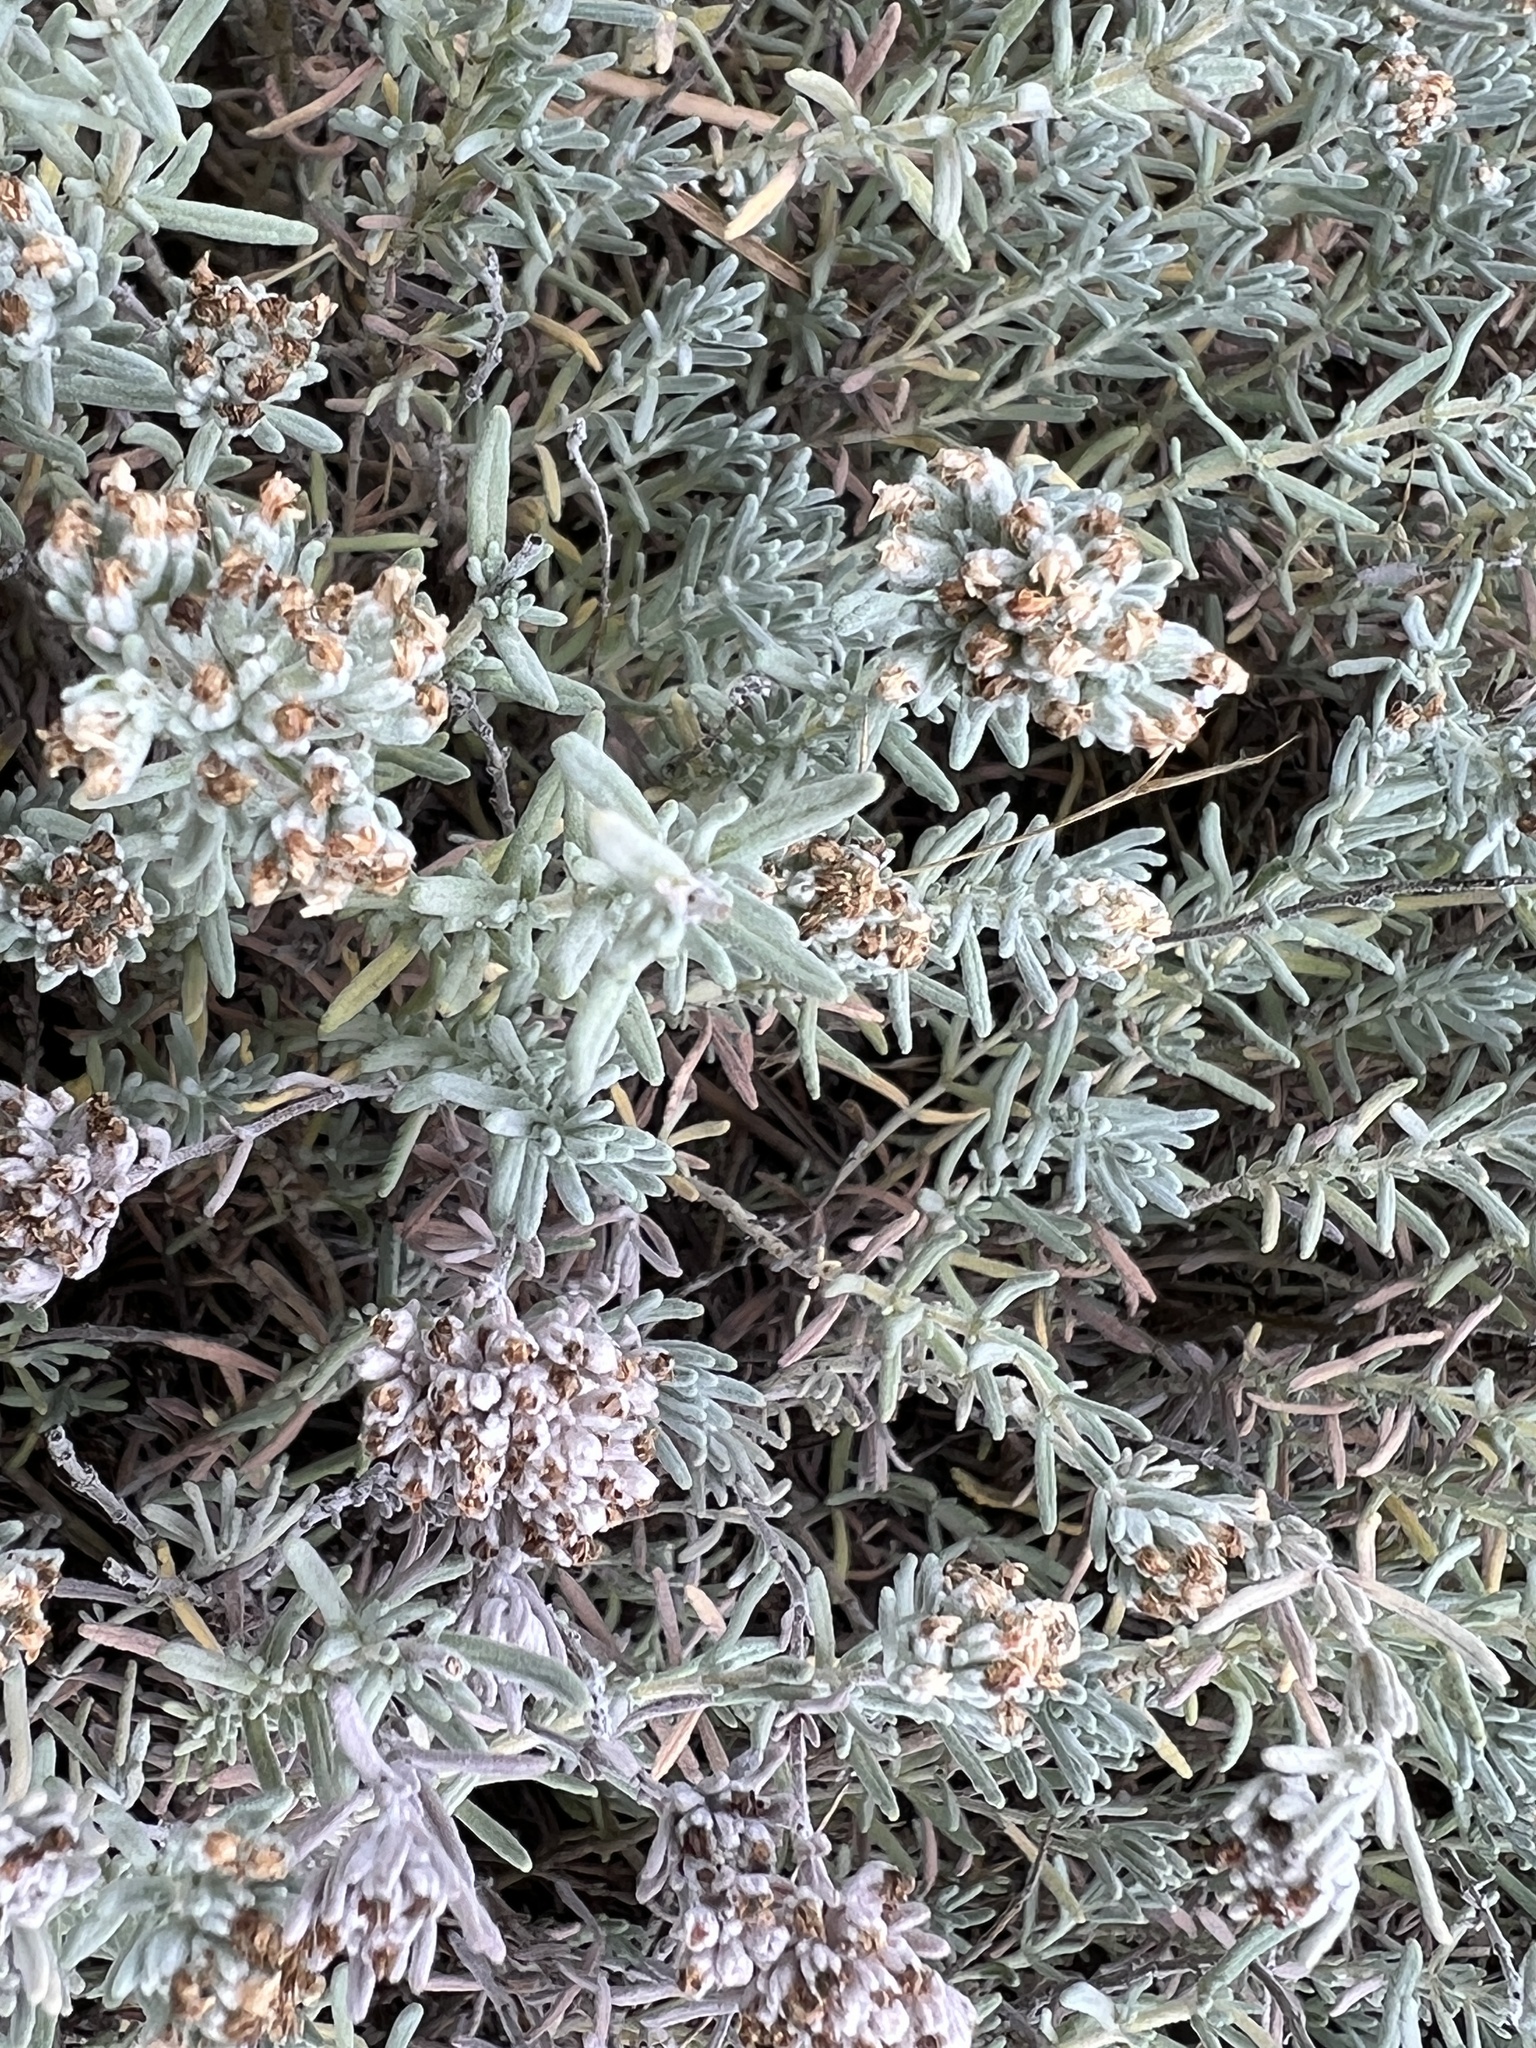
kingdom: Plantae
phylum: Tracheophyta
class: Magnoliopsida
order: Lamiales
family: Lamiaceae
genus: Teucrium
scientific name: Teucrium capitatum
